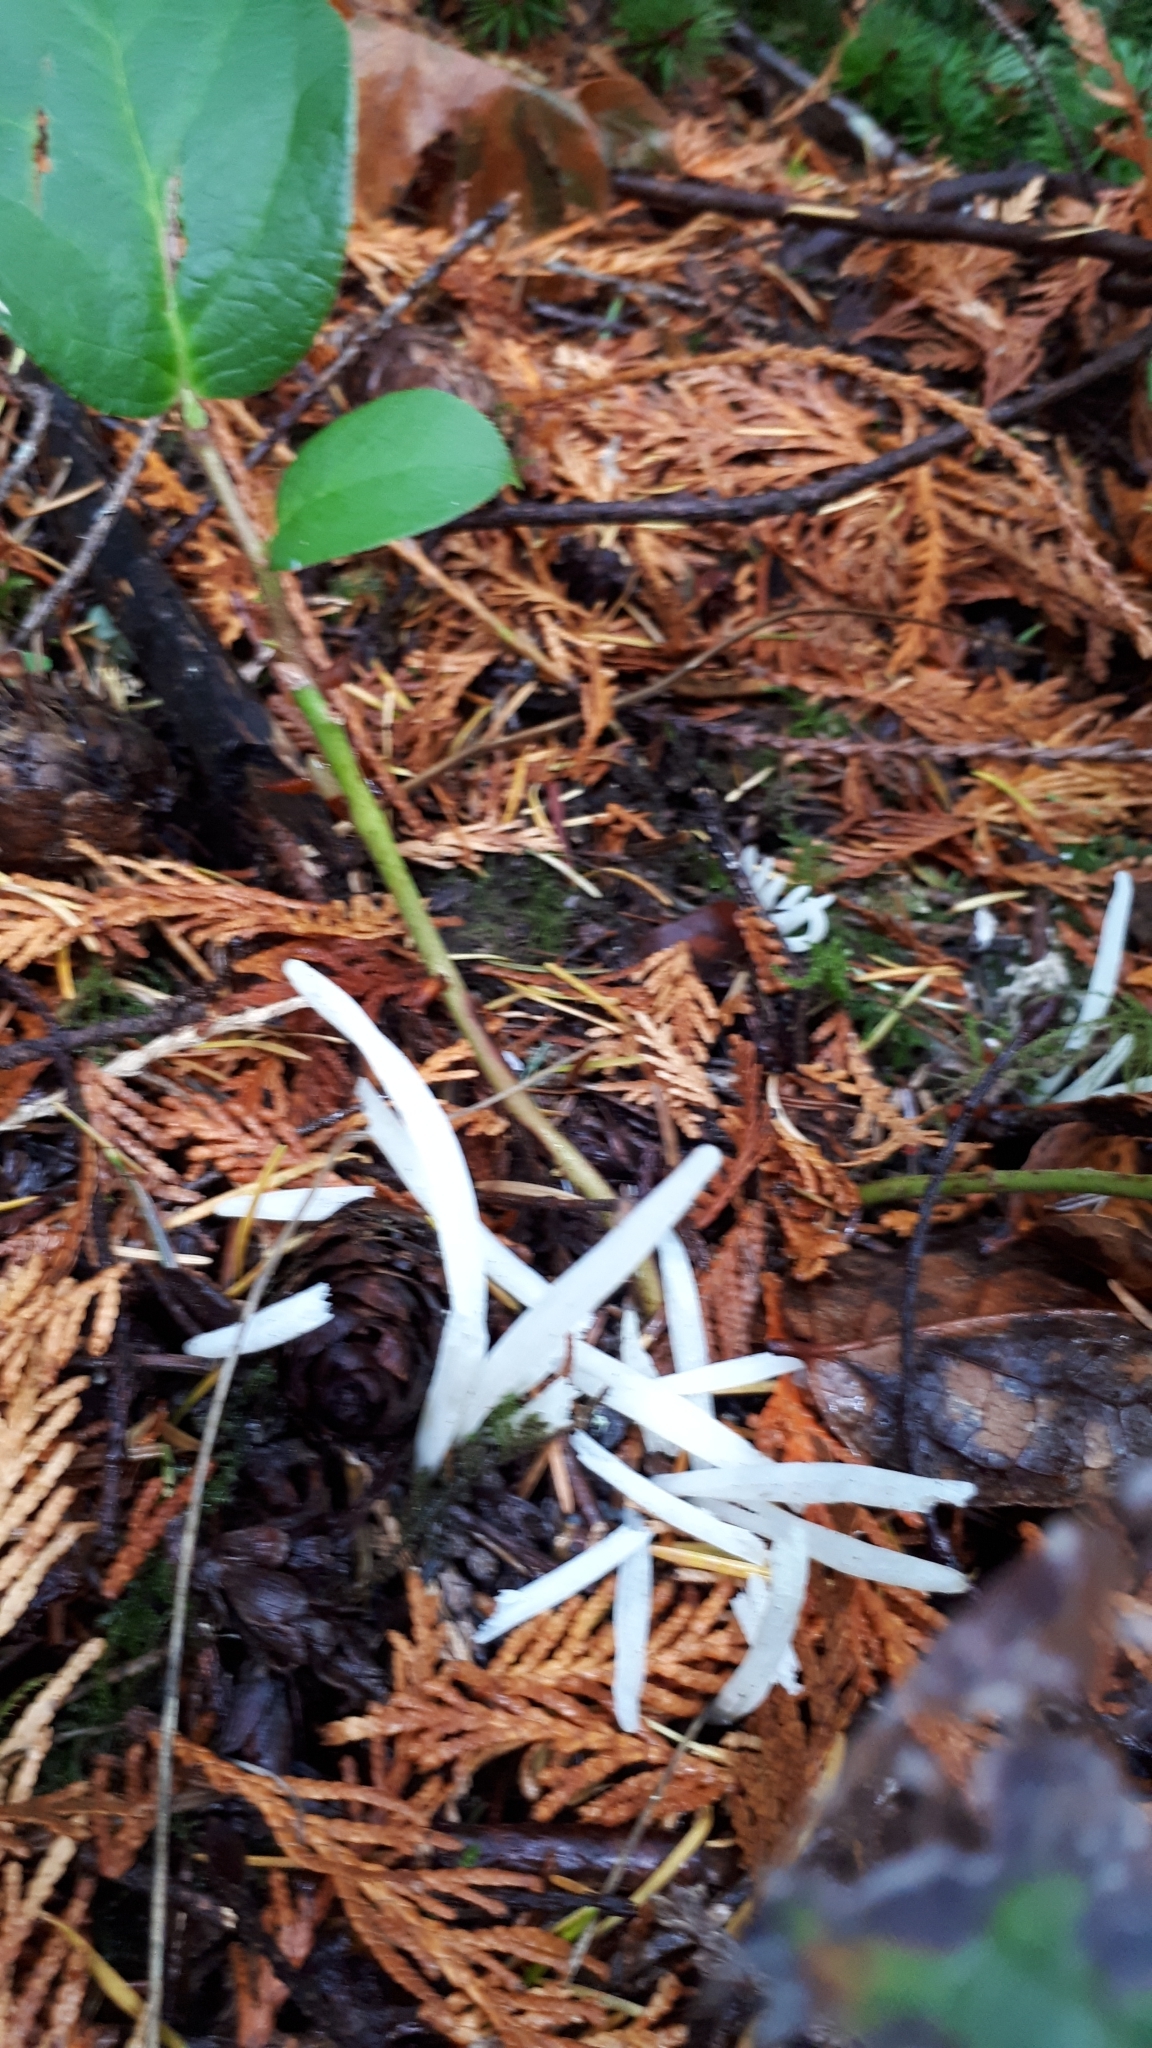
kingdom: Fungi
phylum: Basidiomycota
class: Agaricomycetes
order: Agaricales
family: Clavariaceae
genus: Clavaria
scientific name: Clavaria fragilis
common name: White spindles
